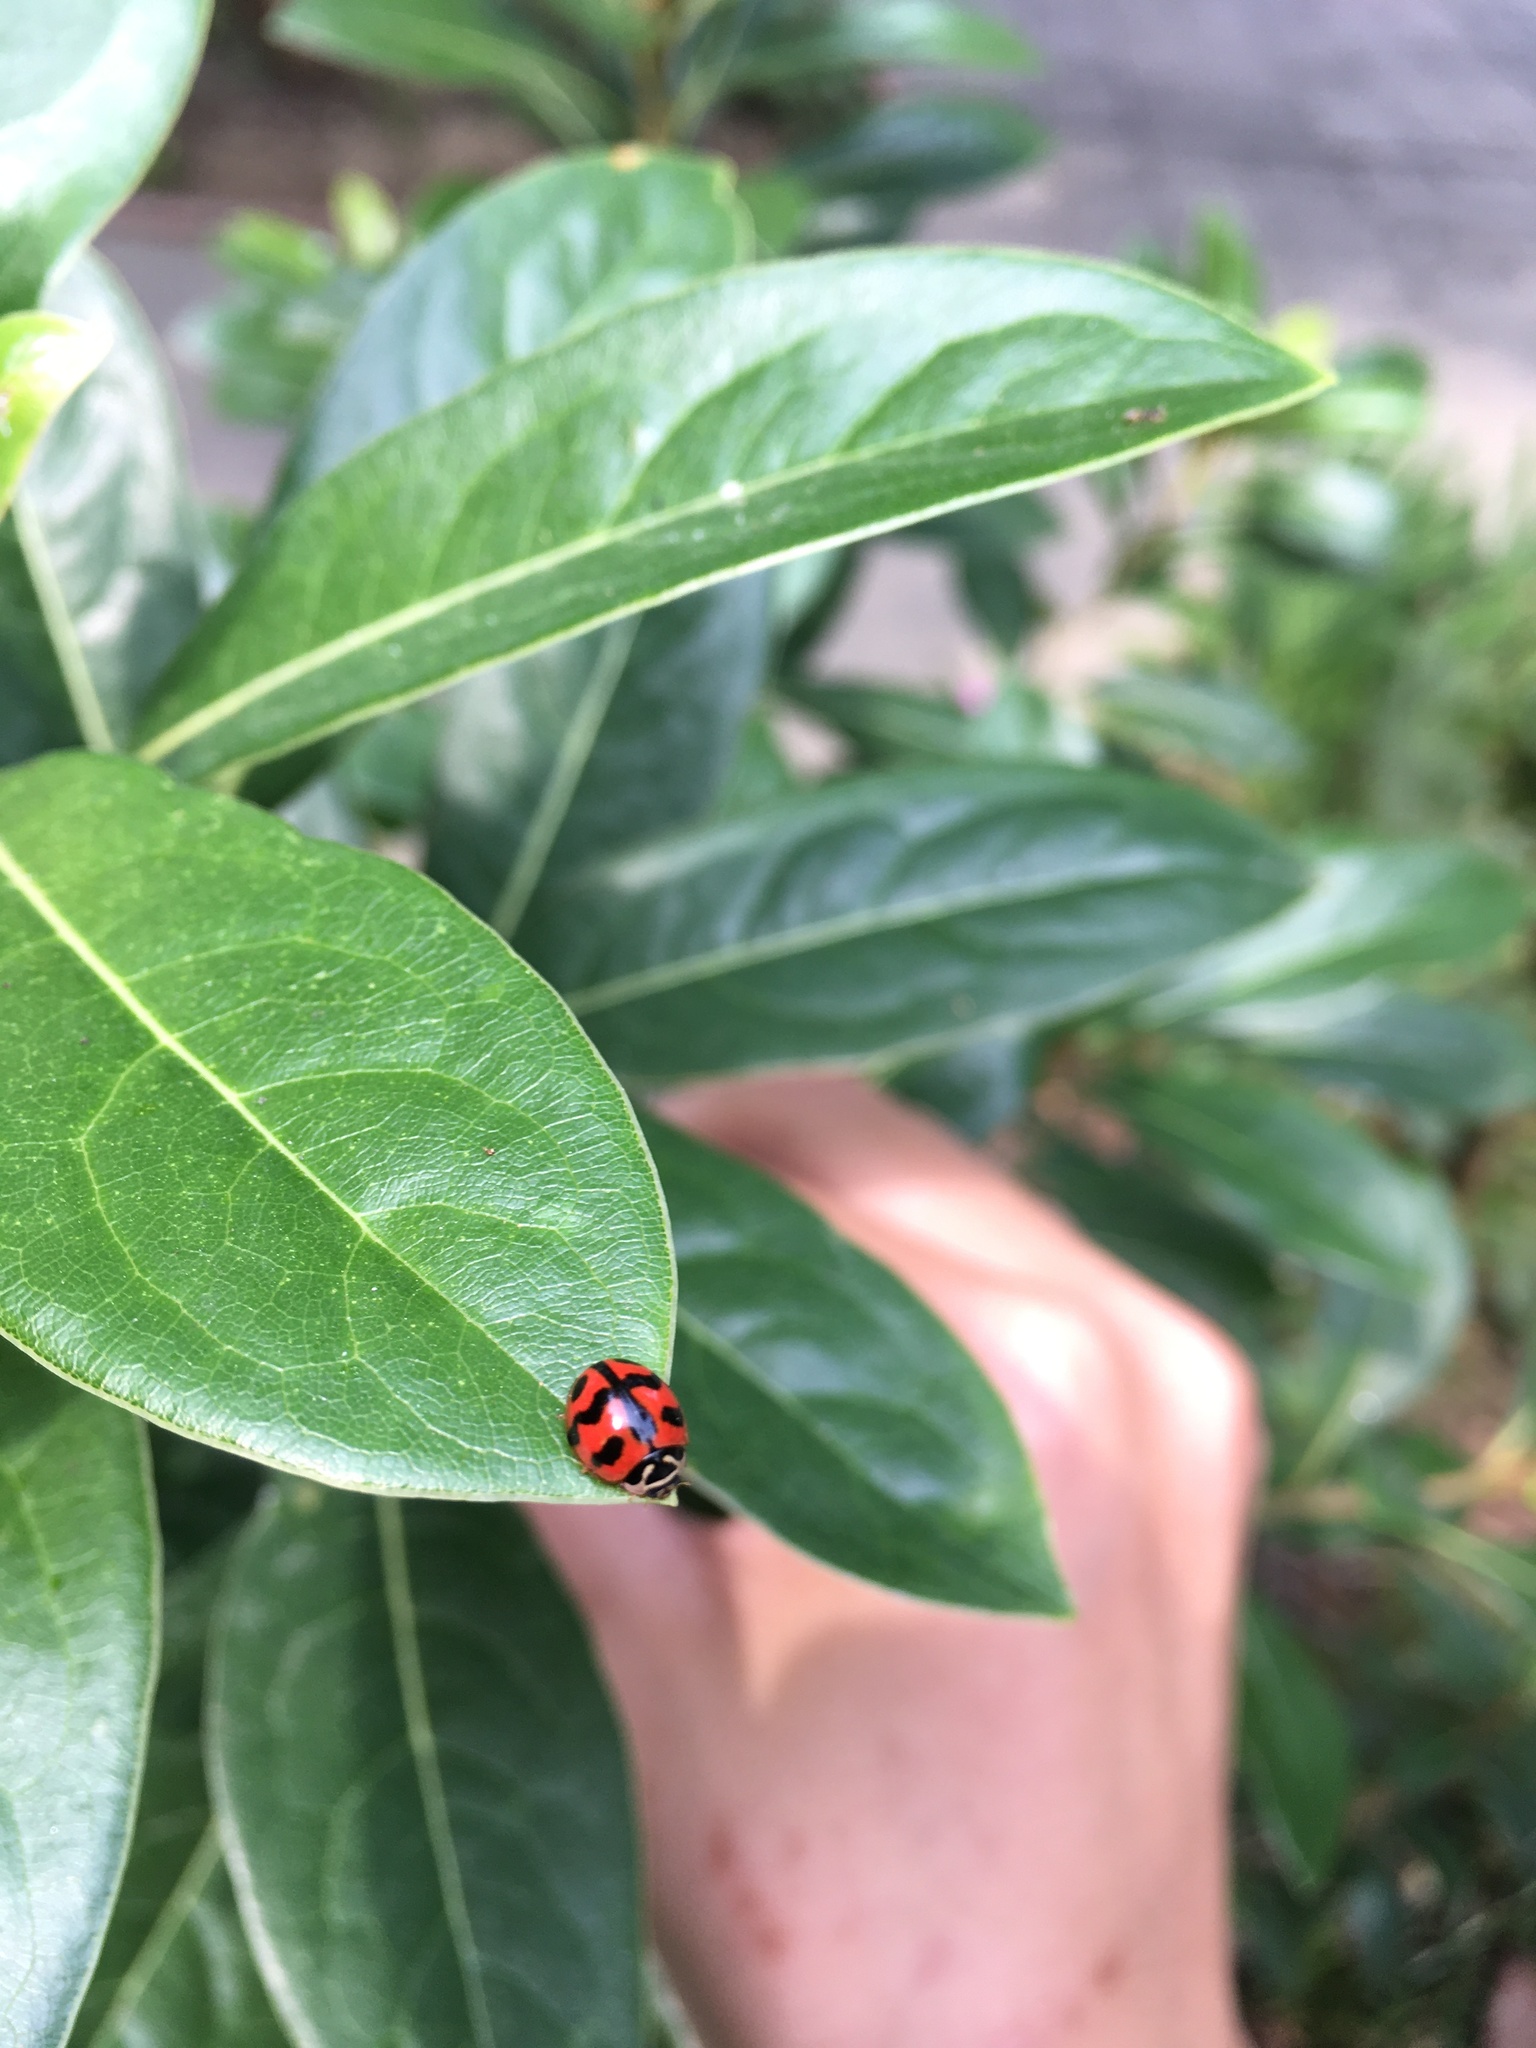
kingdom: Animalia
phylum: Arthropoda
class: Insecta
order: Coleoptera
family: Coccinellidae
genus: Cheilomenes
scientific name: Cheilomenes sexmaculata
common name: Ladybird beetle
